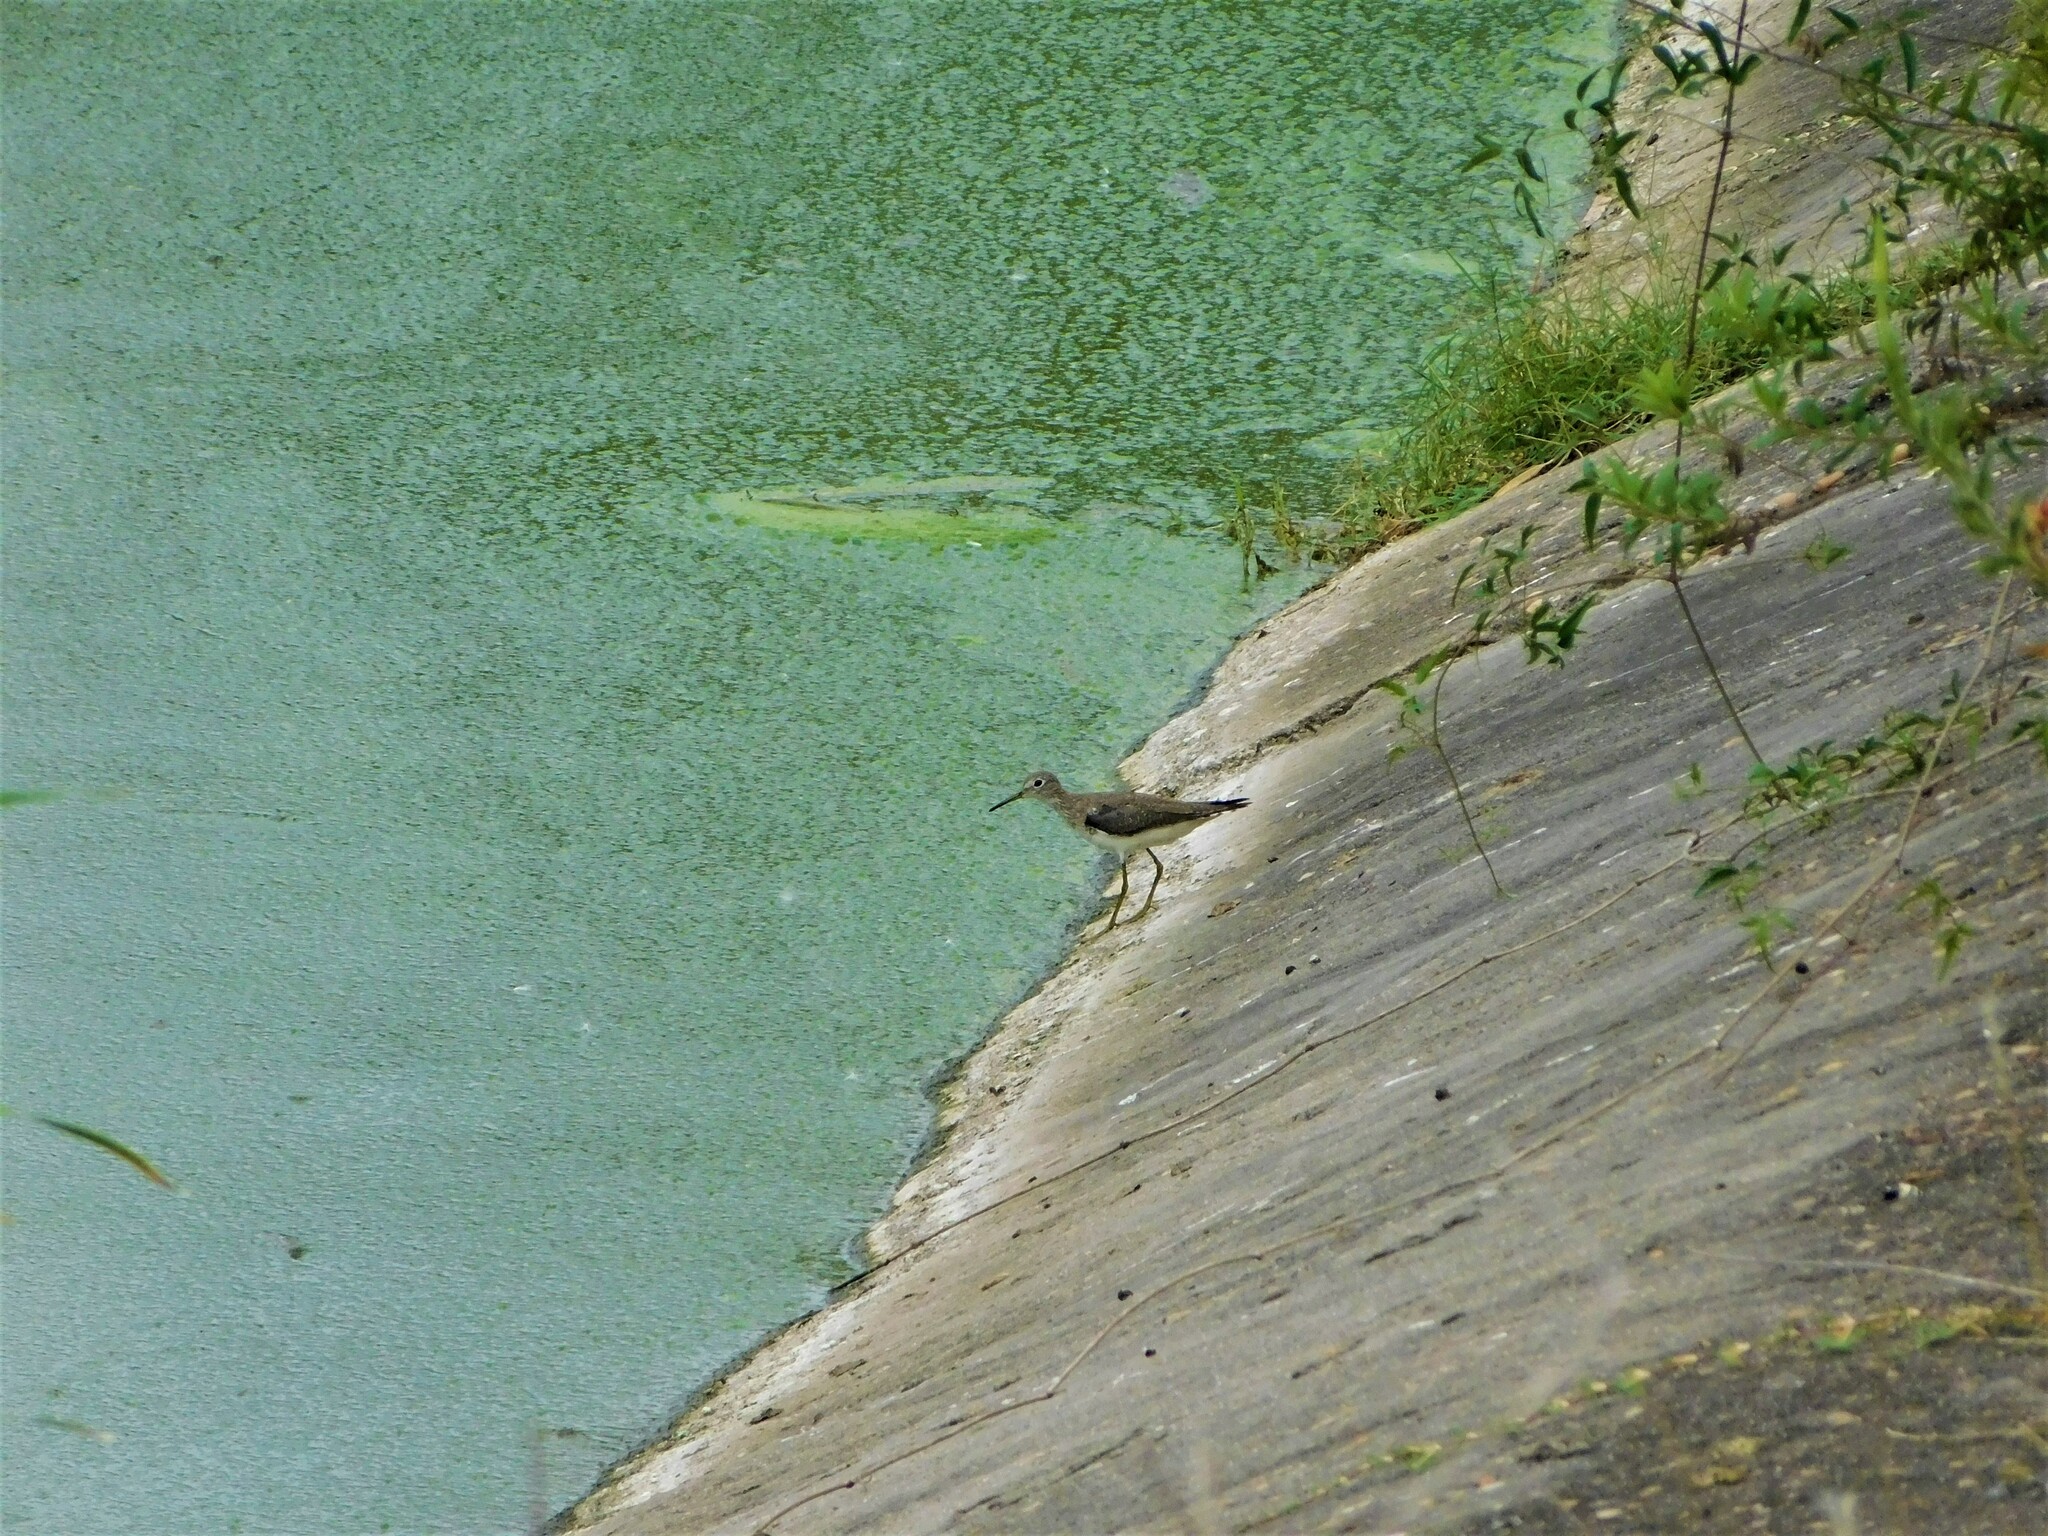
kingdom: Animalia
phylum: Chordata
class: Aves
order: Charadriiformes
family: Scolopacidae
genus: Tringa
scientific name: Tringa solitaria
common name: Solitary sandpiper
